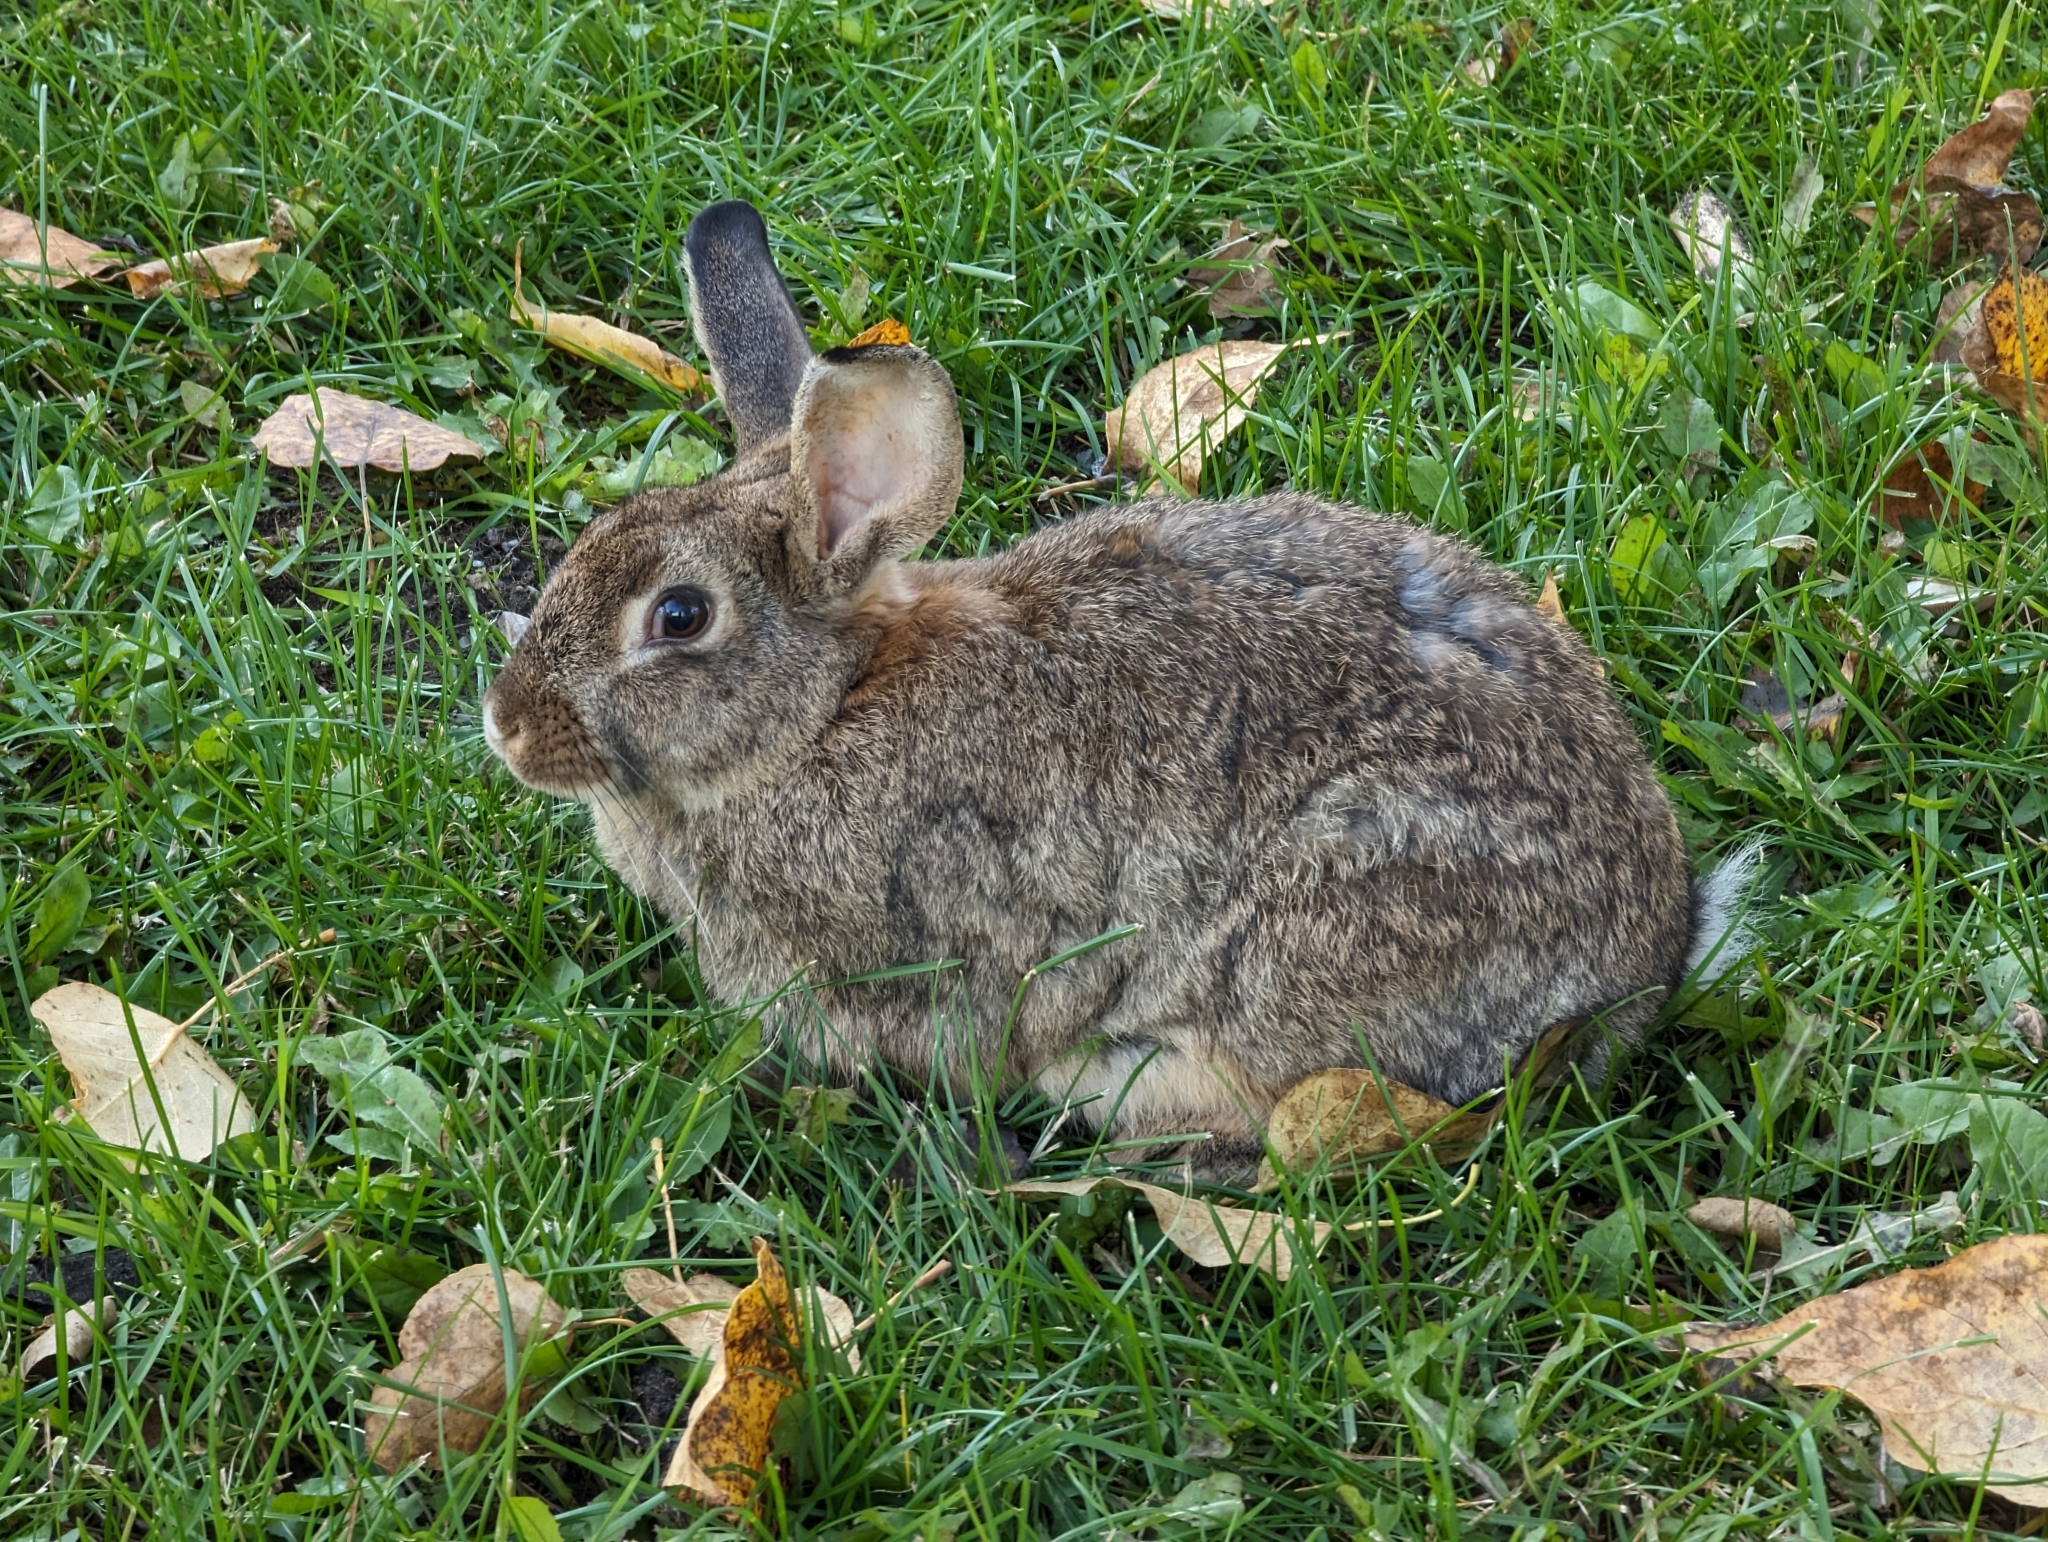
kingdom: Animalia
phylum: Chordata
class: Mammalia
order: Lagomorpha
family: Leporidae
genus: Oryctolagus
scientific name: Oryctolagus cuniculus
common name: European rabbit
